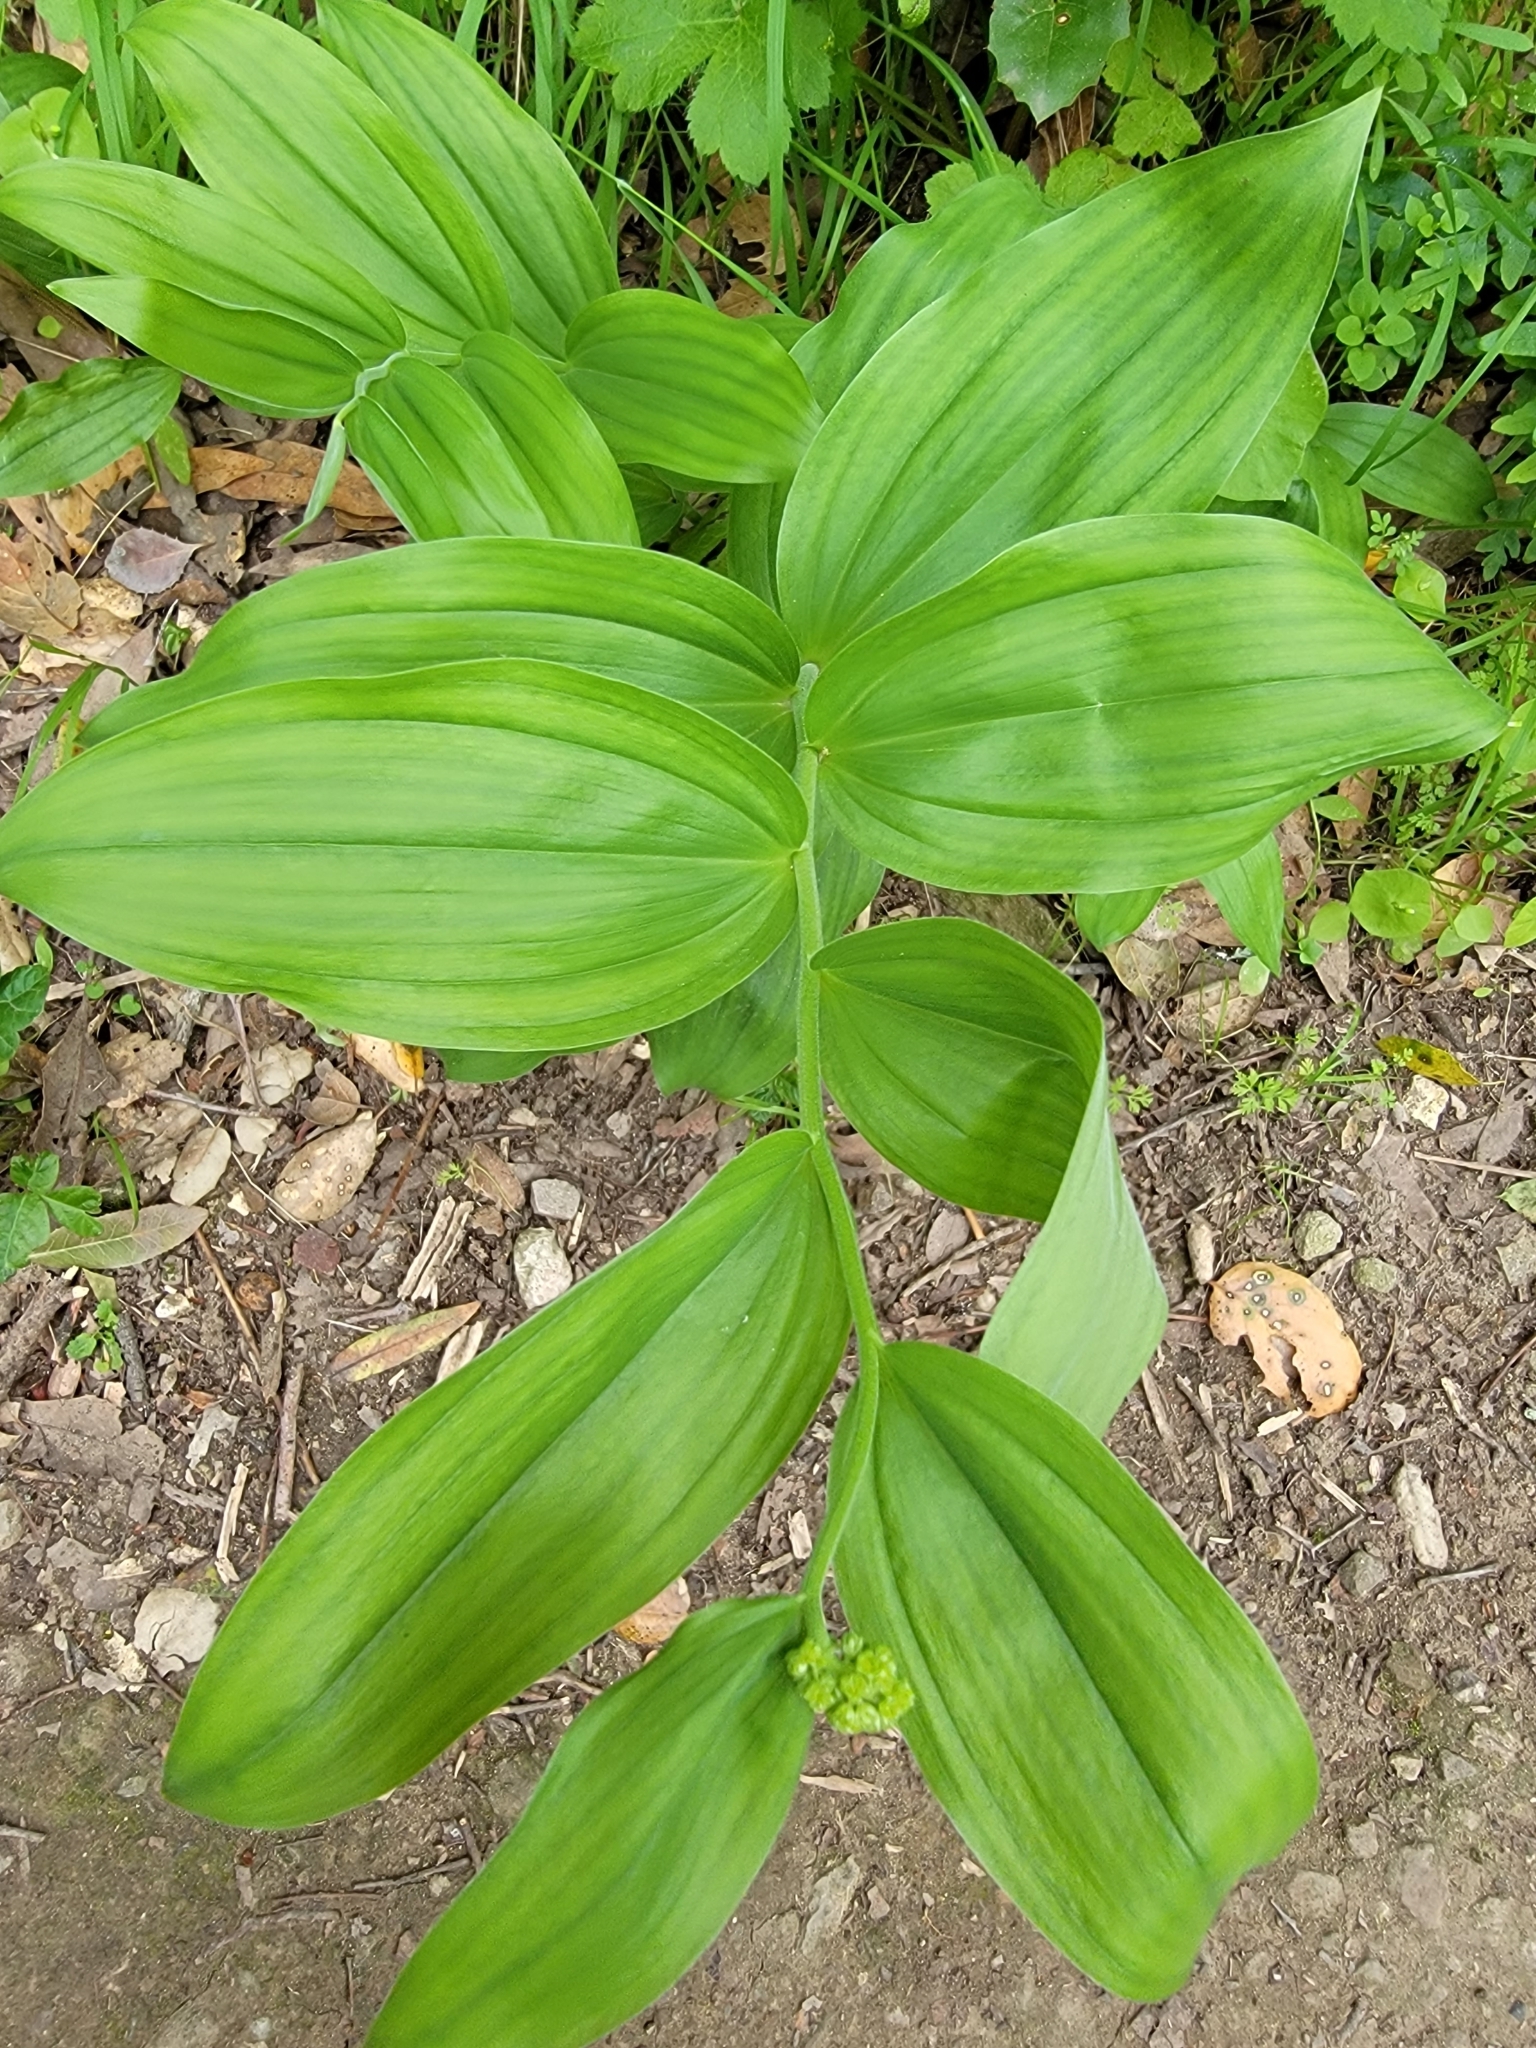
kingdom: Plantae
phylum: Tracheophyta
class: Liliopsida
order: Asparagales
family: Asparagaceae
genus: Maianthemum
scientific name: Maianthemum racemosum
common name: False spikenard
